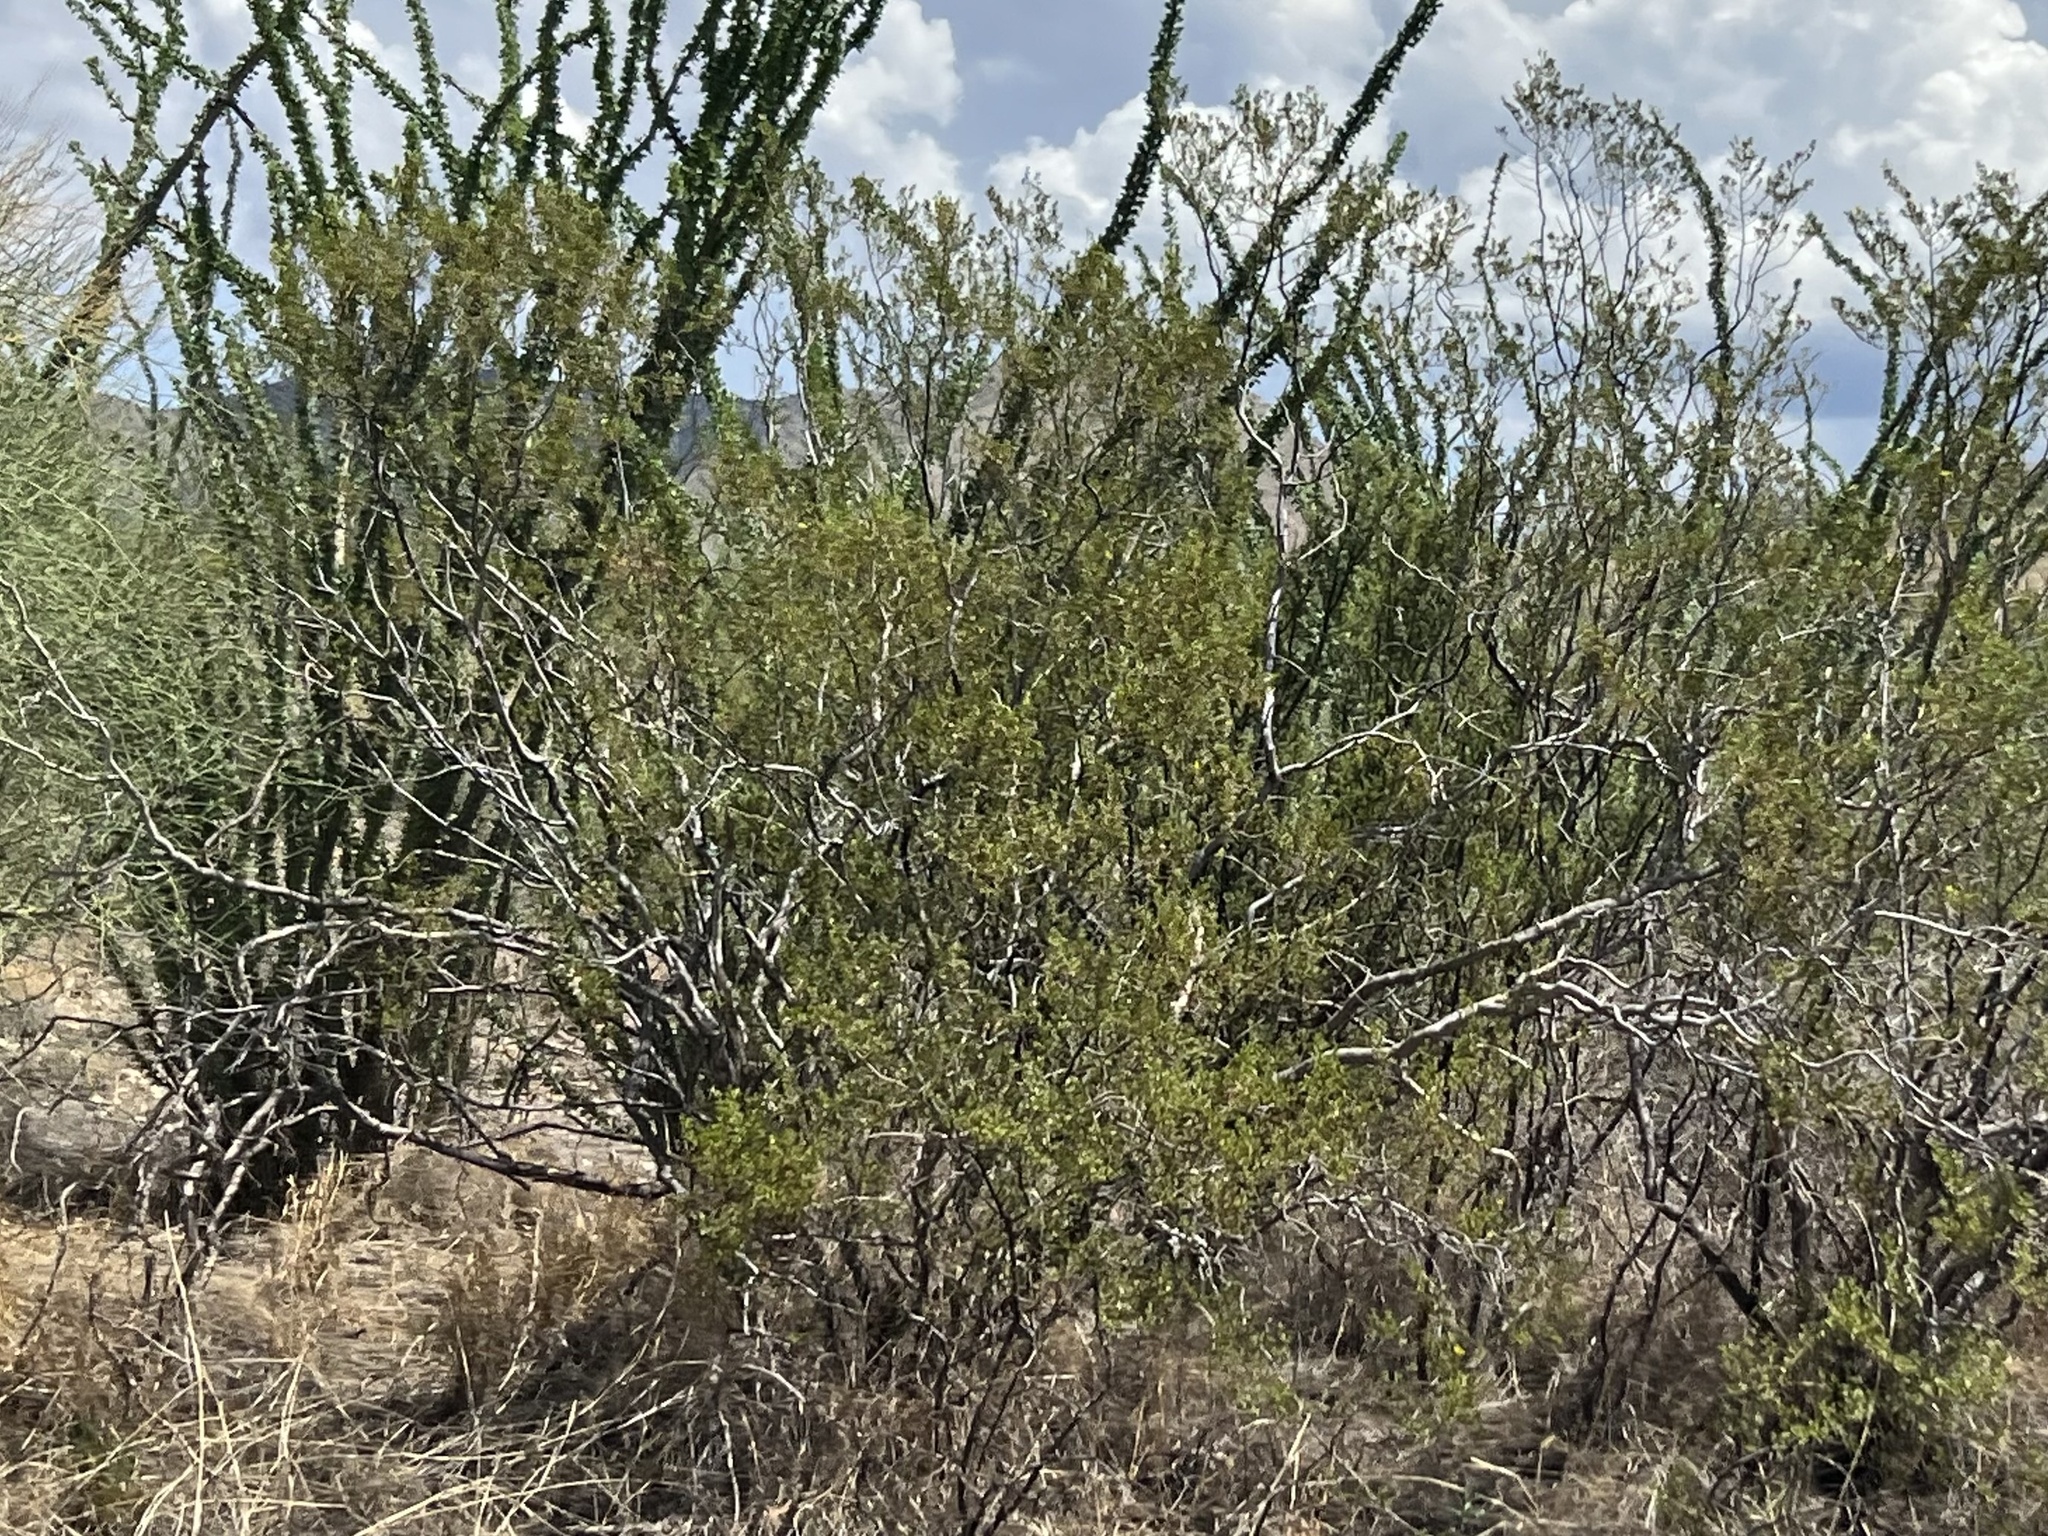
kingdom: Plantae
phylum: Tracheophyta
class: Magnoliopsida
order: Zygophyllales
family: Zygophyllaceae
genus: Larrea
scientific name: Larrea tridentata
